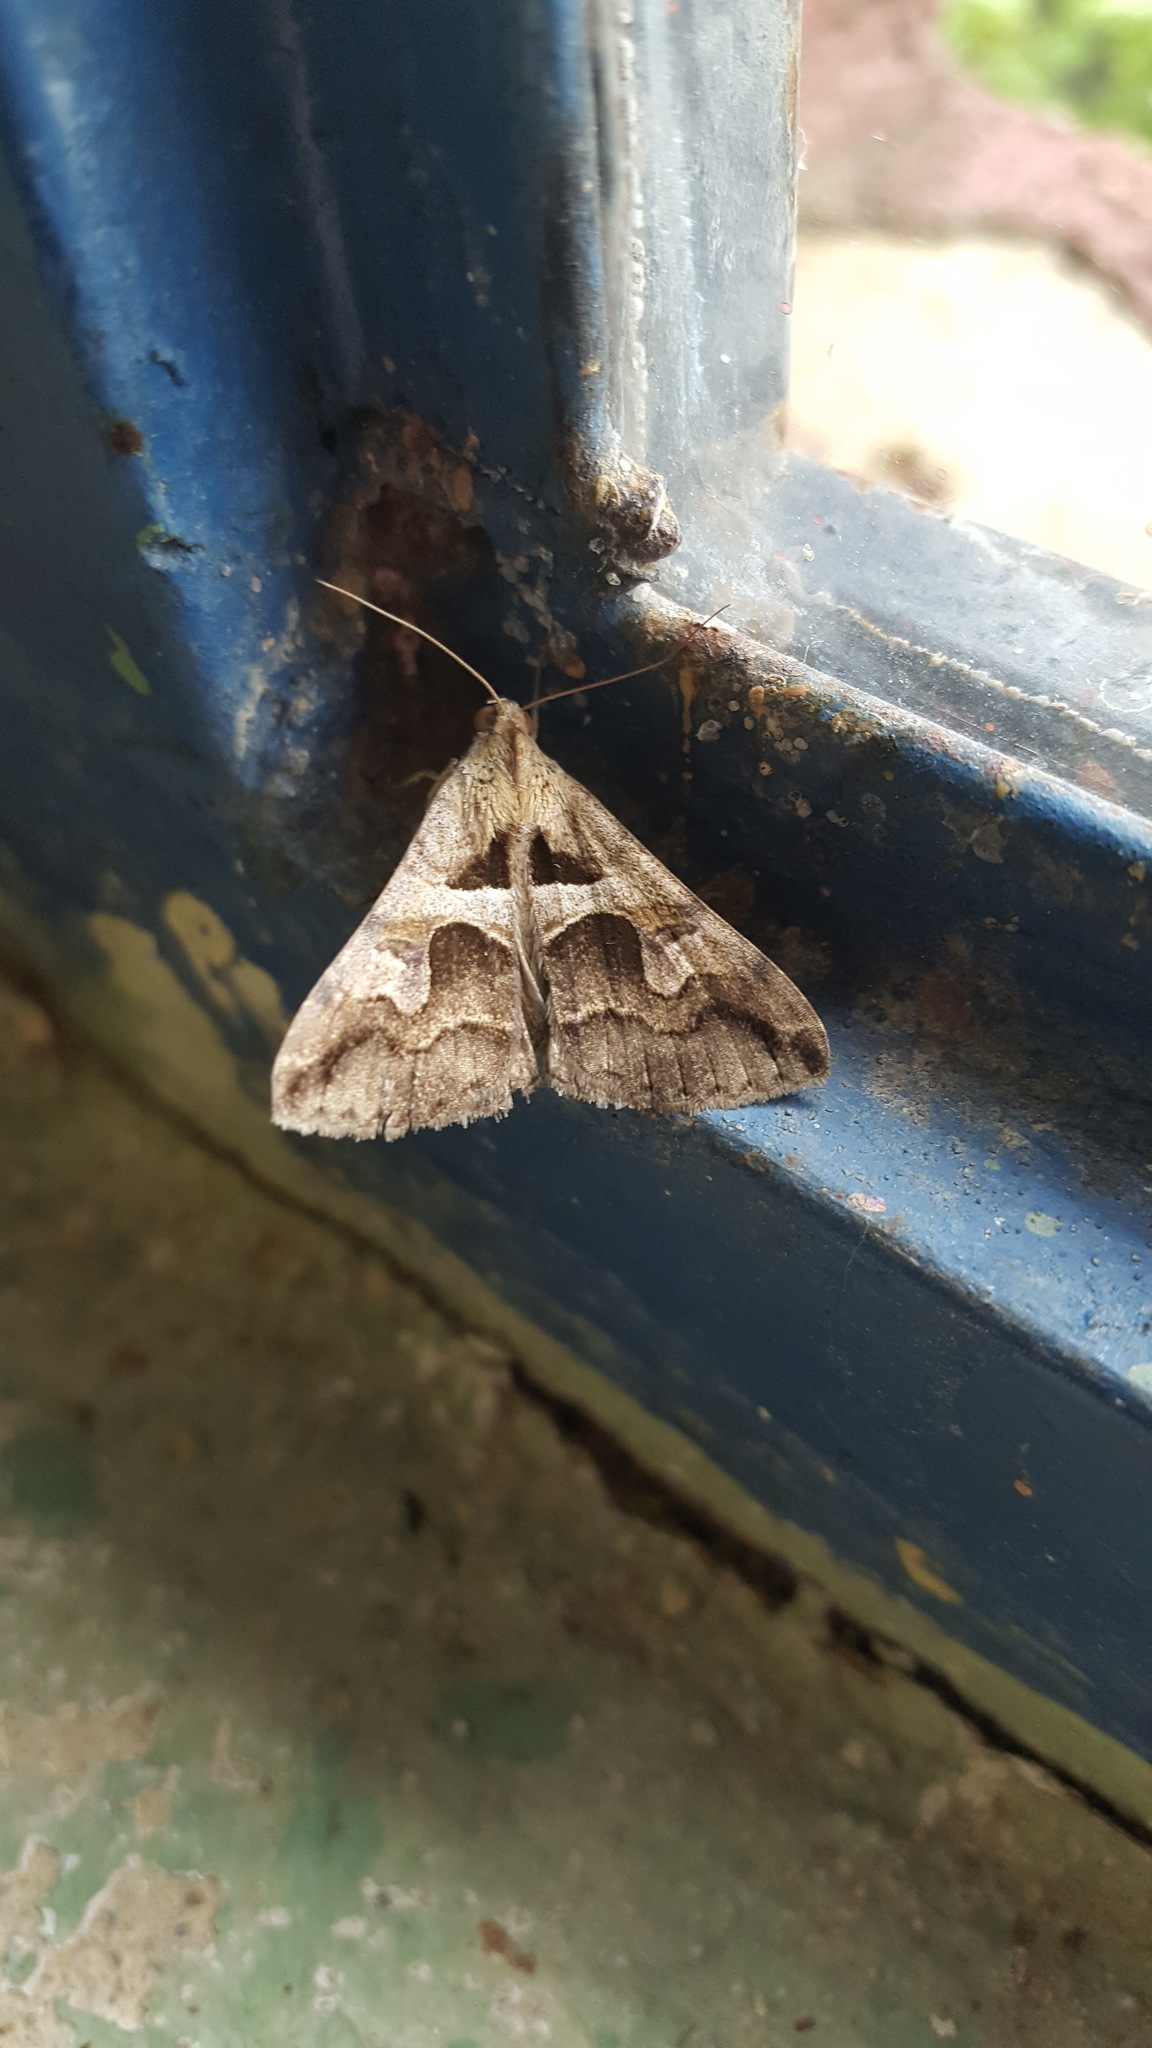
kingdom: Animalia
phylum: Arthropoda
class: Insecta
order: Lepidoptera
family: Erebidae
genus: Melipotis
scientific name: Melipotis cellaris
